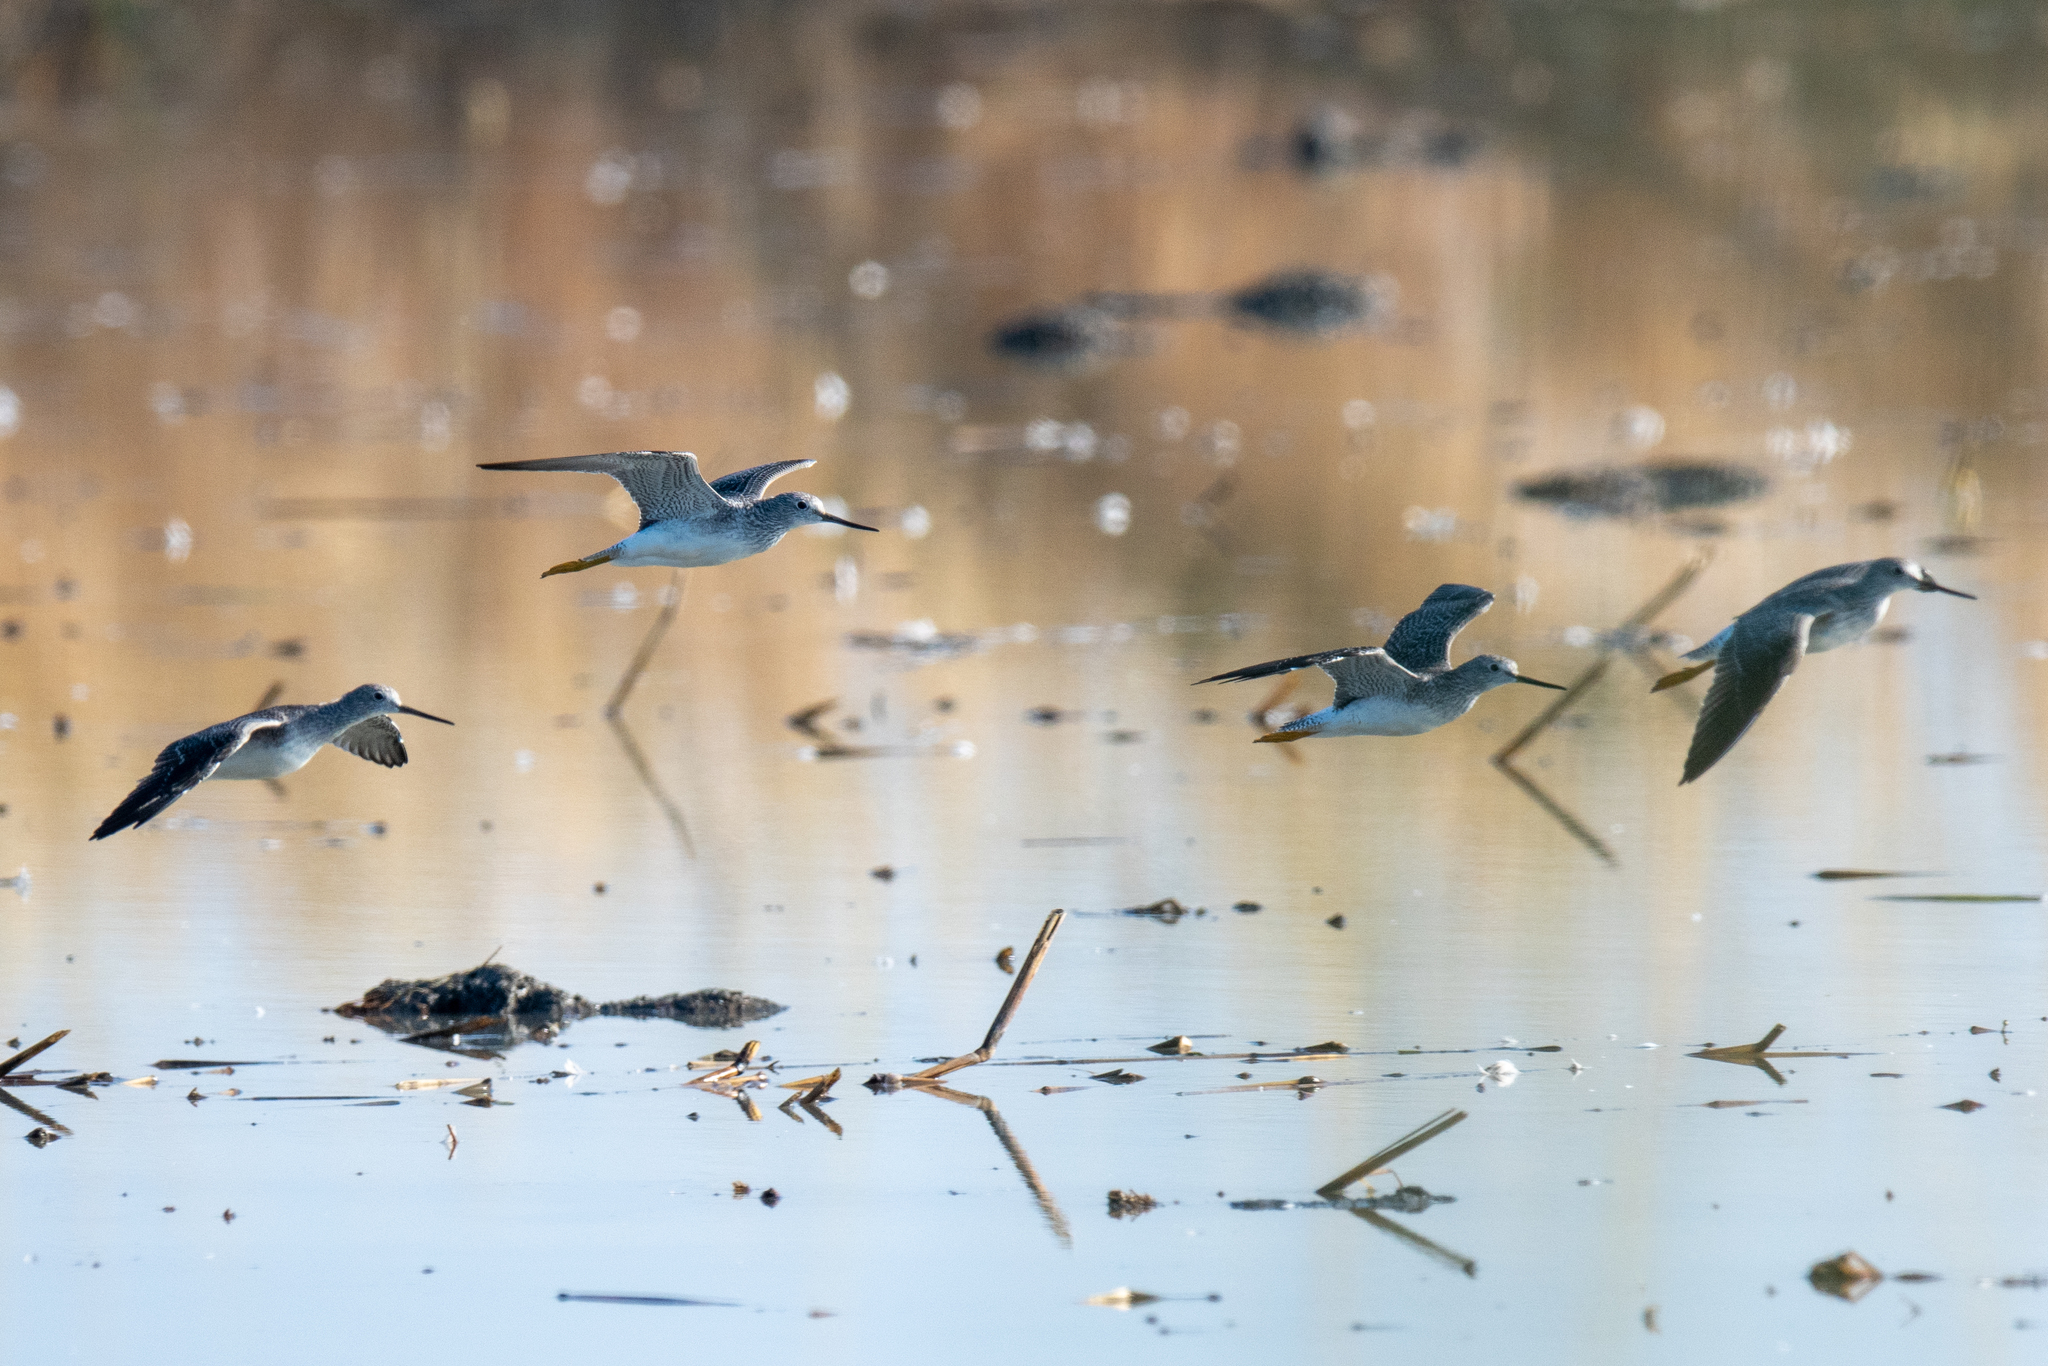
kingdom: Animalia
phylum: Chordata
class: Aves
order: Charadriiformes
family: Scolopacidae
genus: Tringa
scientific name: Tringa melanoleuca
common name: Greater yellowlegs
